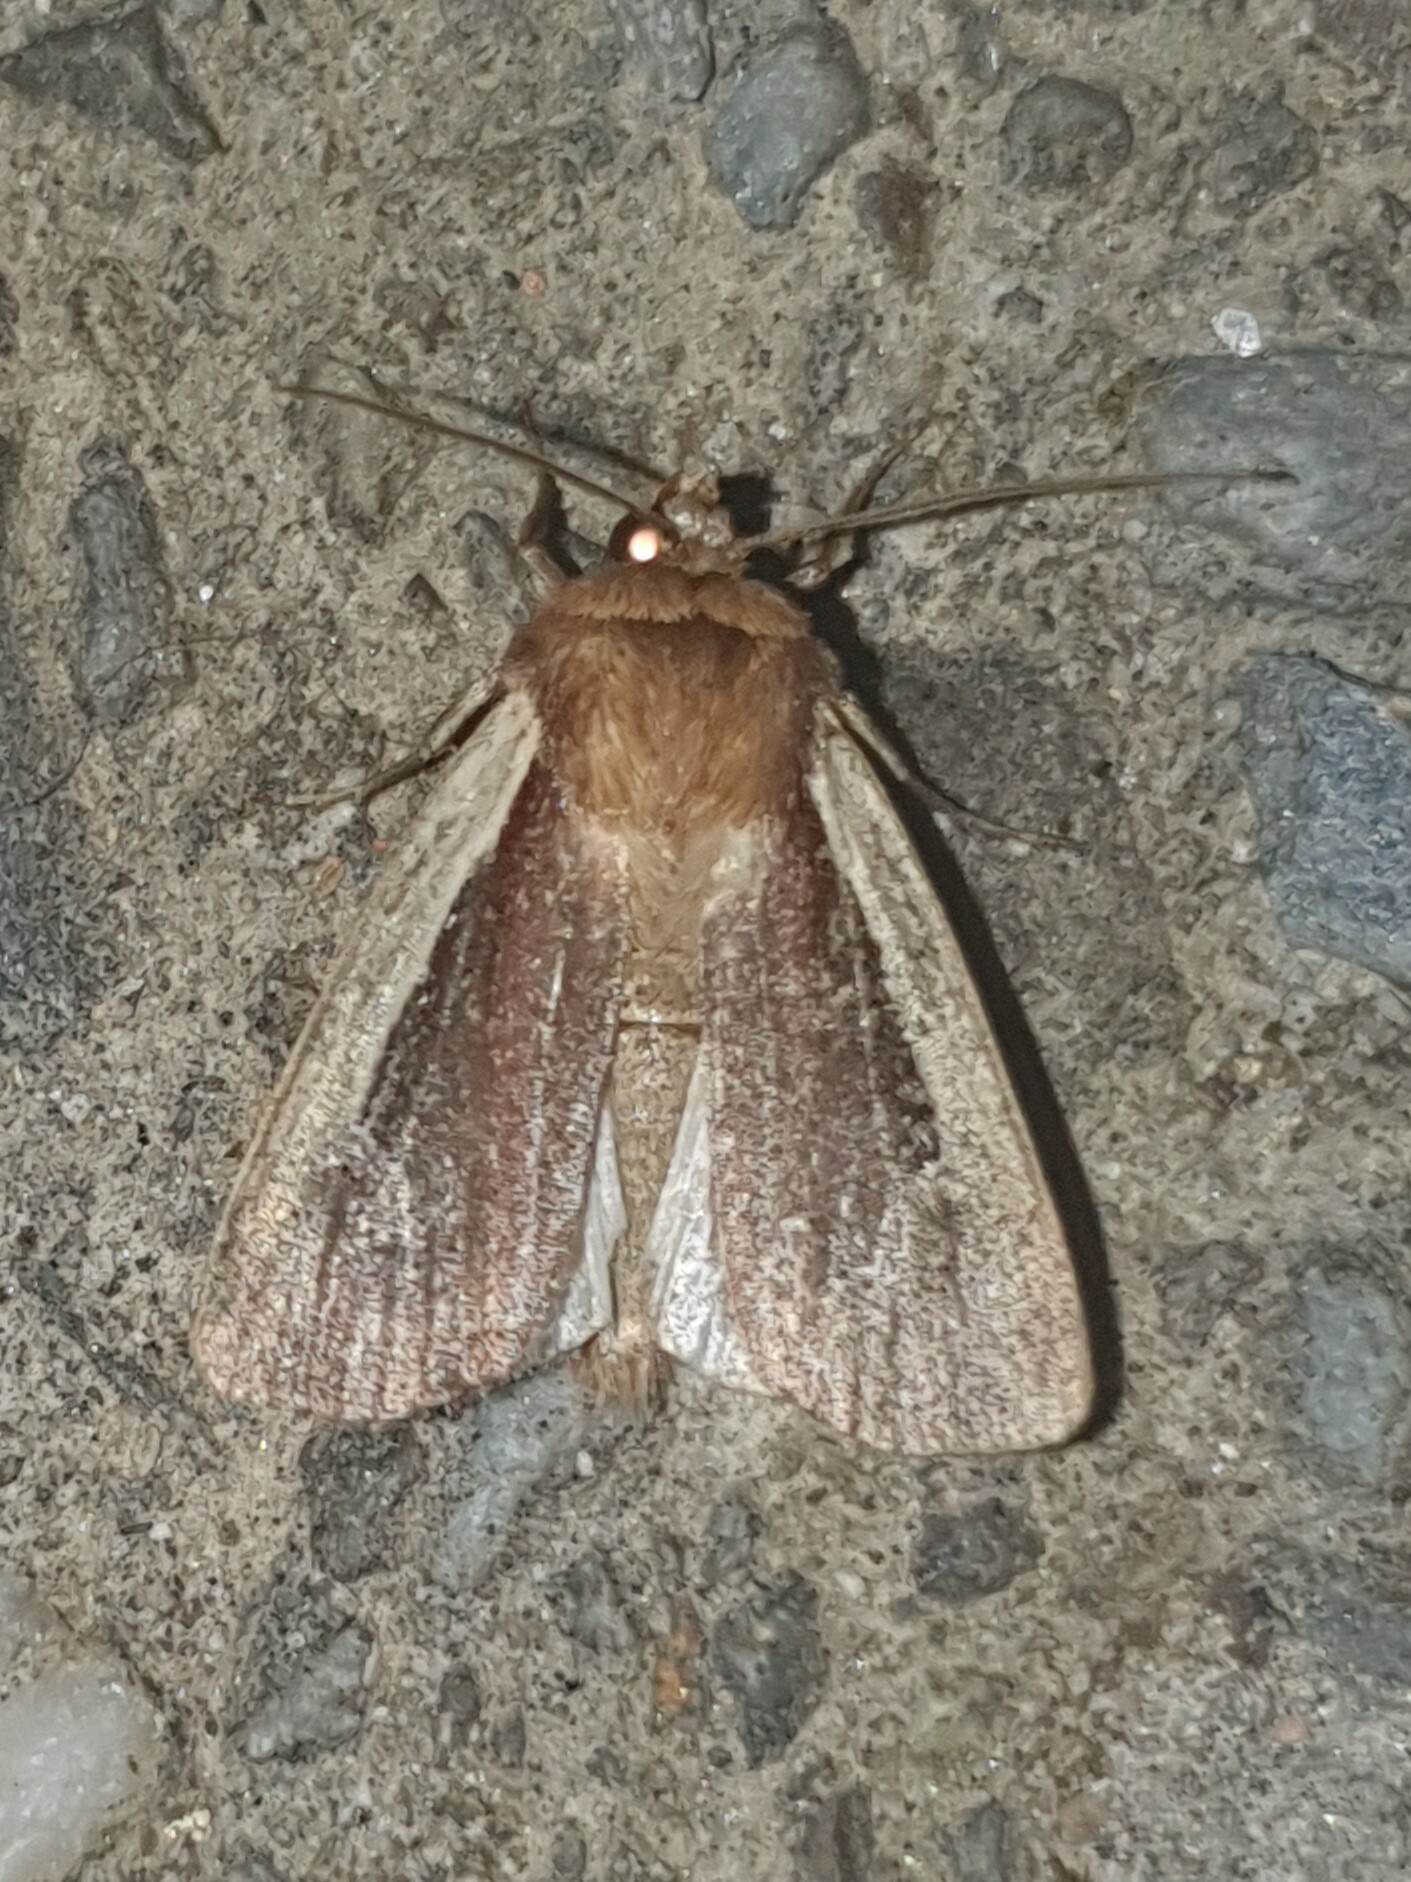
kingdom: Animalia
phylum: Arthropoda
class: Insecta
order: Lepidoptera
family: Noctuidae
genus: Ochropleura
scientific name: Ochropleura plecta
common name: Flame shoulder
